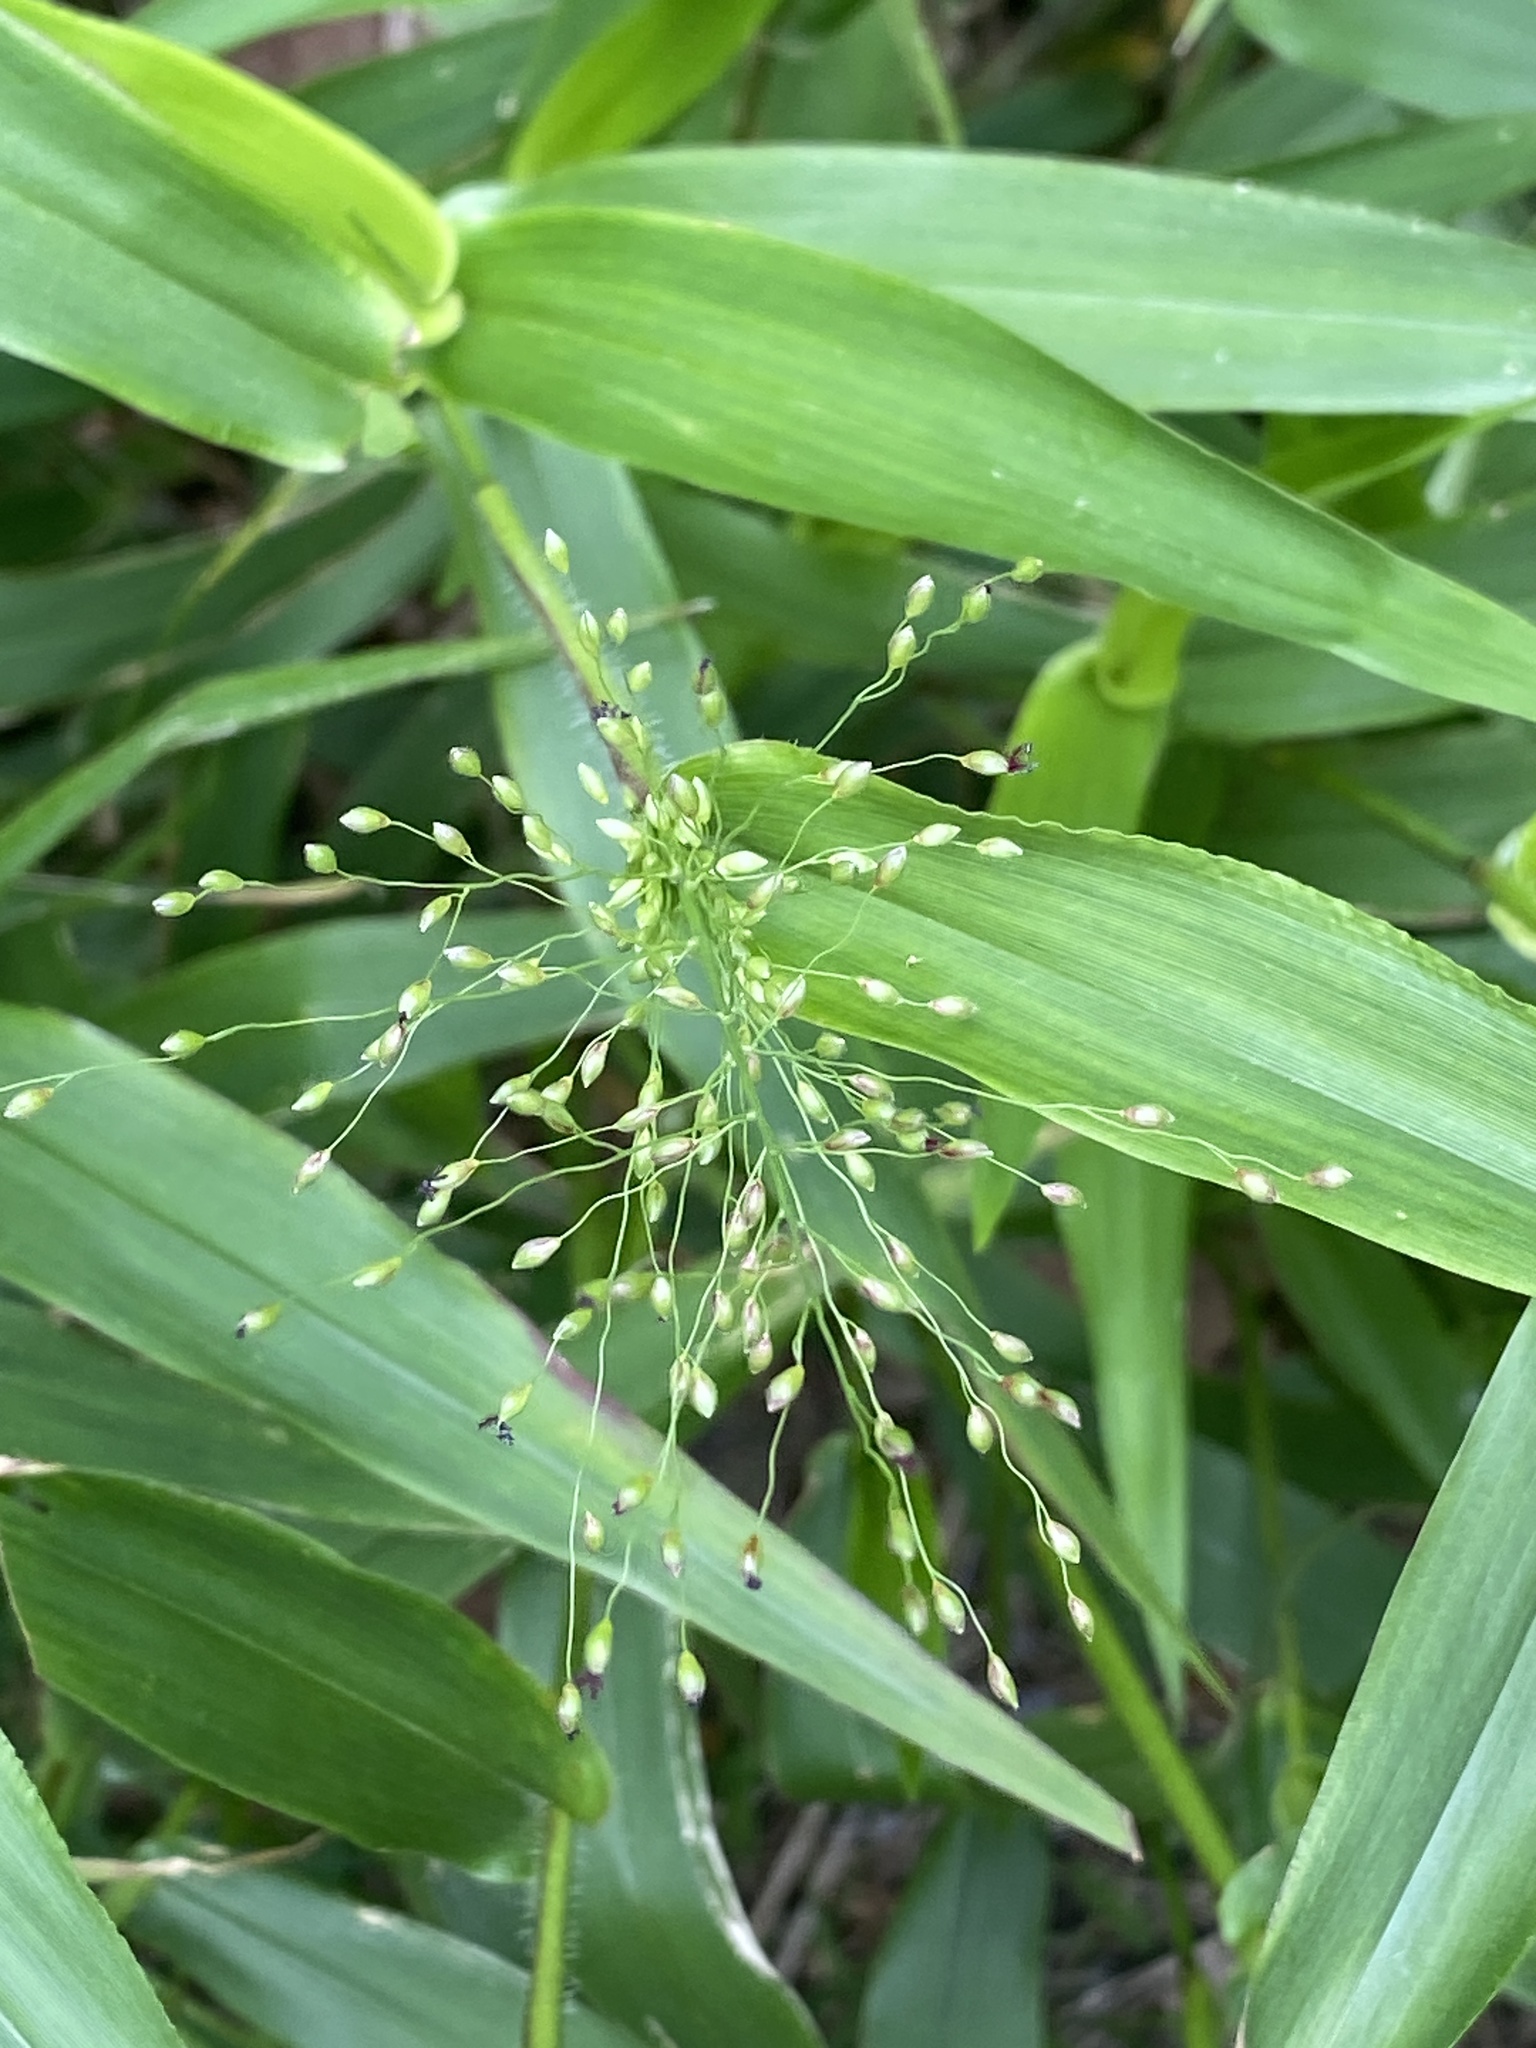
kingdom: Plantae
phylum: Tracheophyta
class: Liliopsida
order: Poales
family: Poaceae
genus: Dichanthelium
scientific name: Dichanthelium clandestinum
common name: Deer-tongue grass
